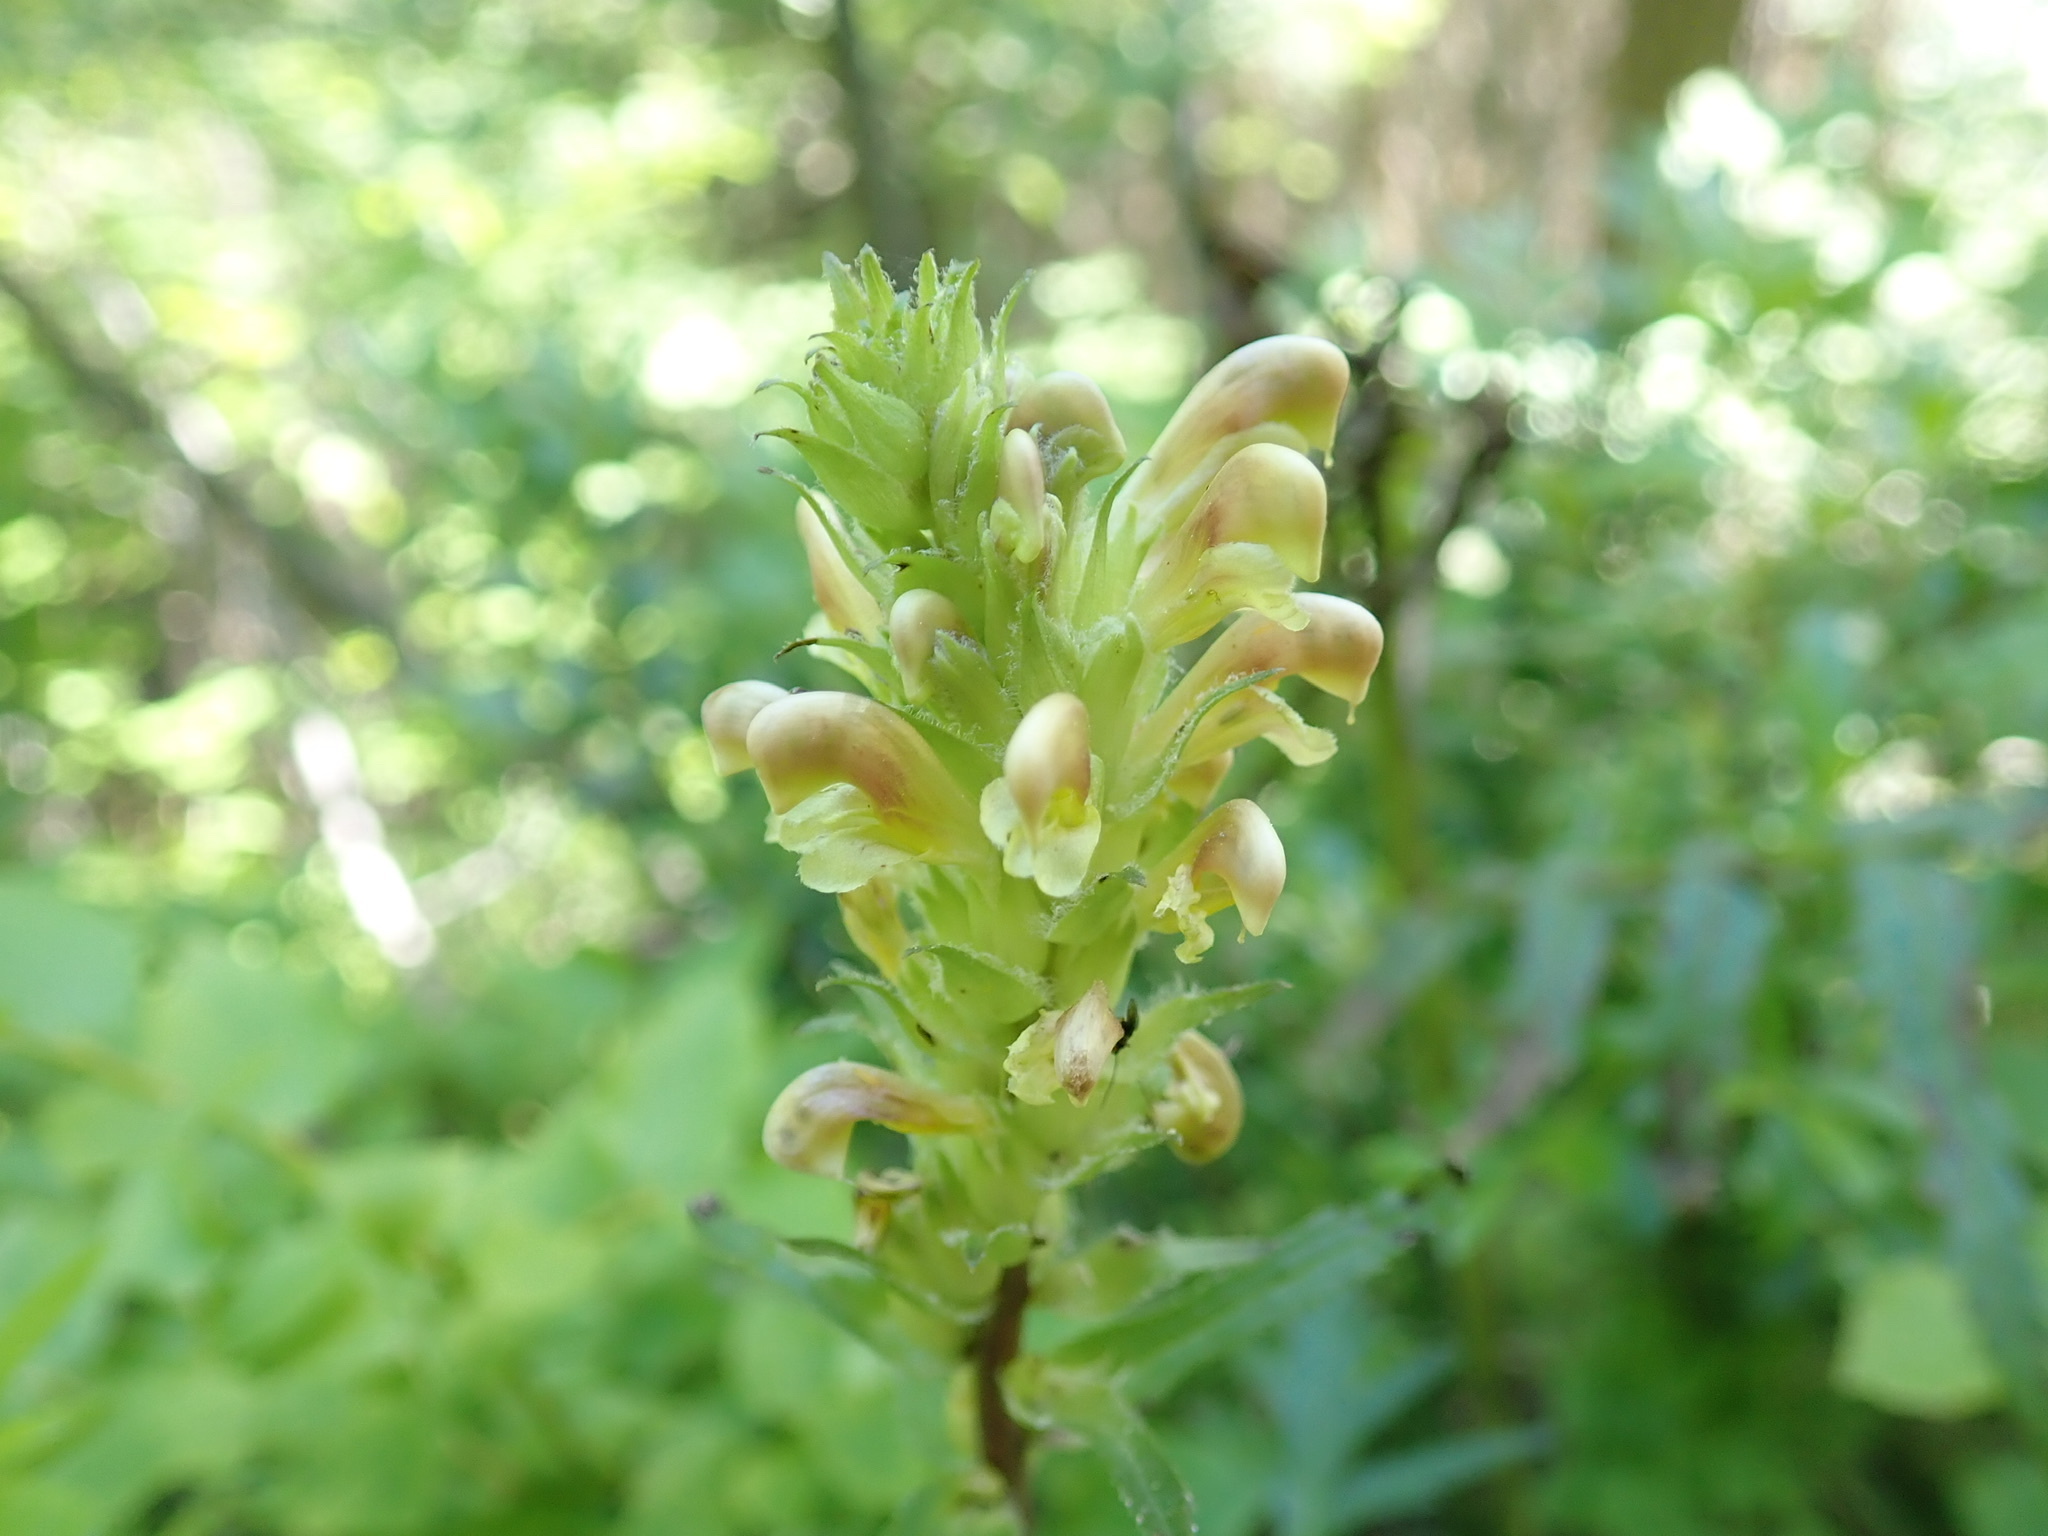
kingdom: Plantae
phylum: Tracheophyta
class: Magnoliopsida
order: Lamiales
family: Orobanchaceae
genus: Pedicularis
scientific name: Pedicularis bracteosa
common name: Bracted lousewort
